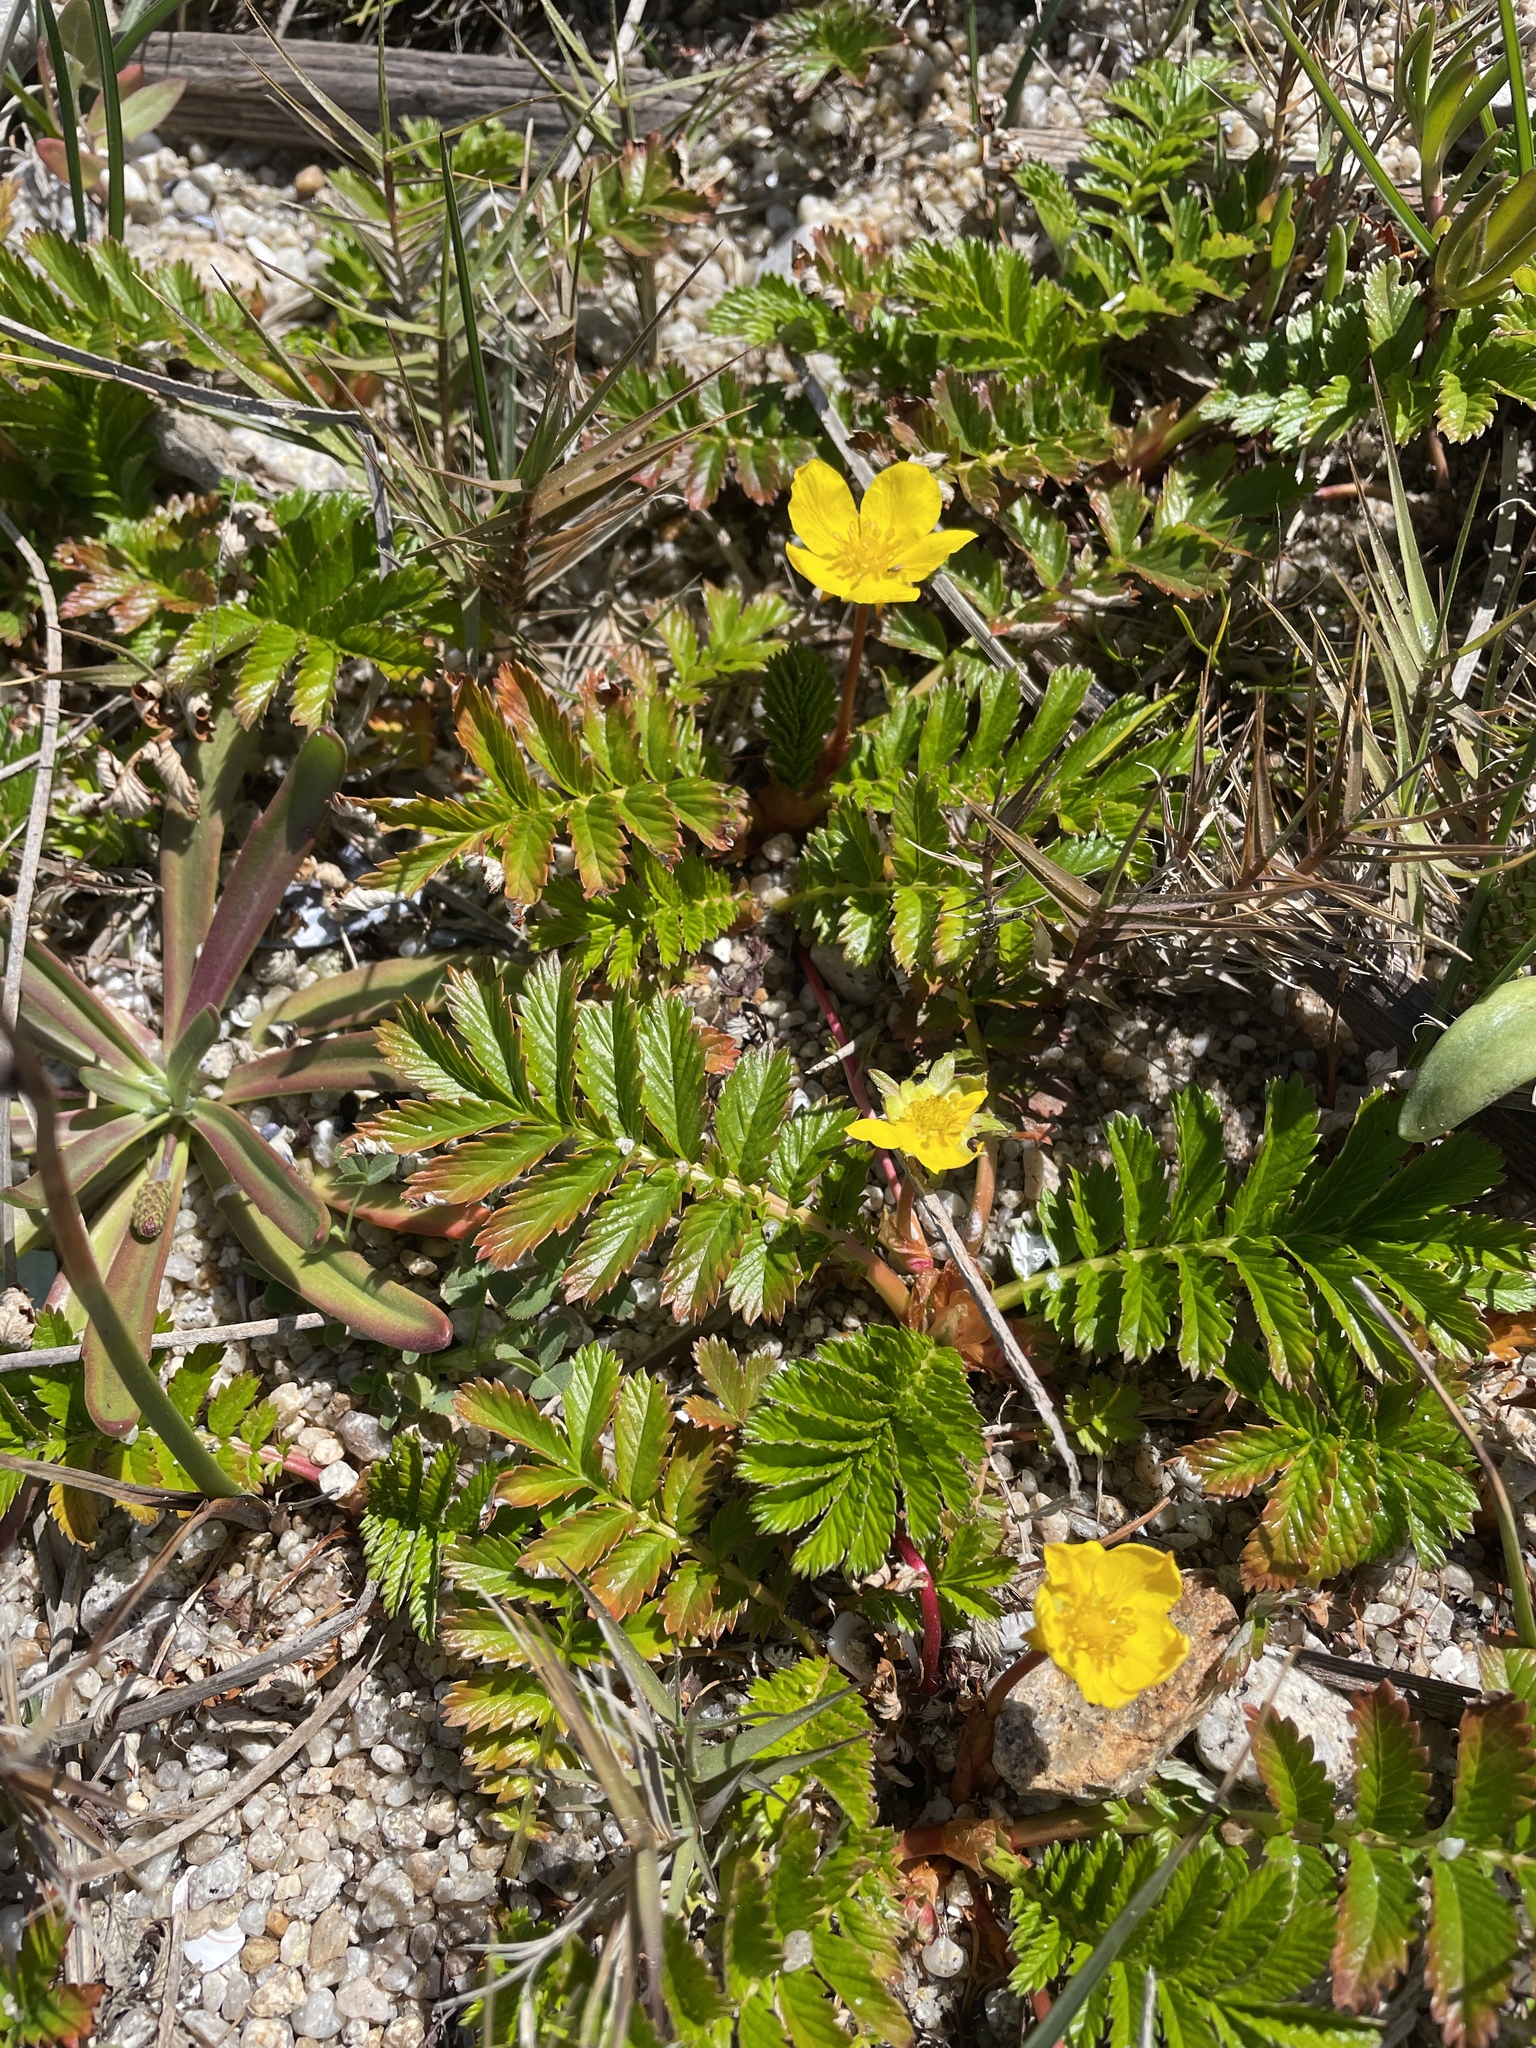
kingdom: Plantae
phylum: Tracheophyta
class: Magnoliopsida
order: Rosales
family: Rosaceae
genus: Argentina
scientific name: Argentina anserina
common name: Common silverweed
